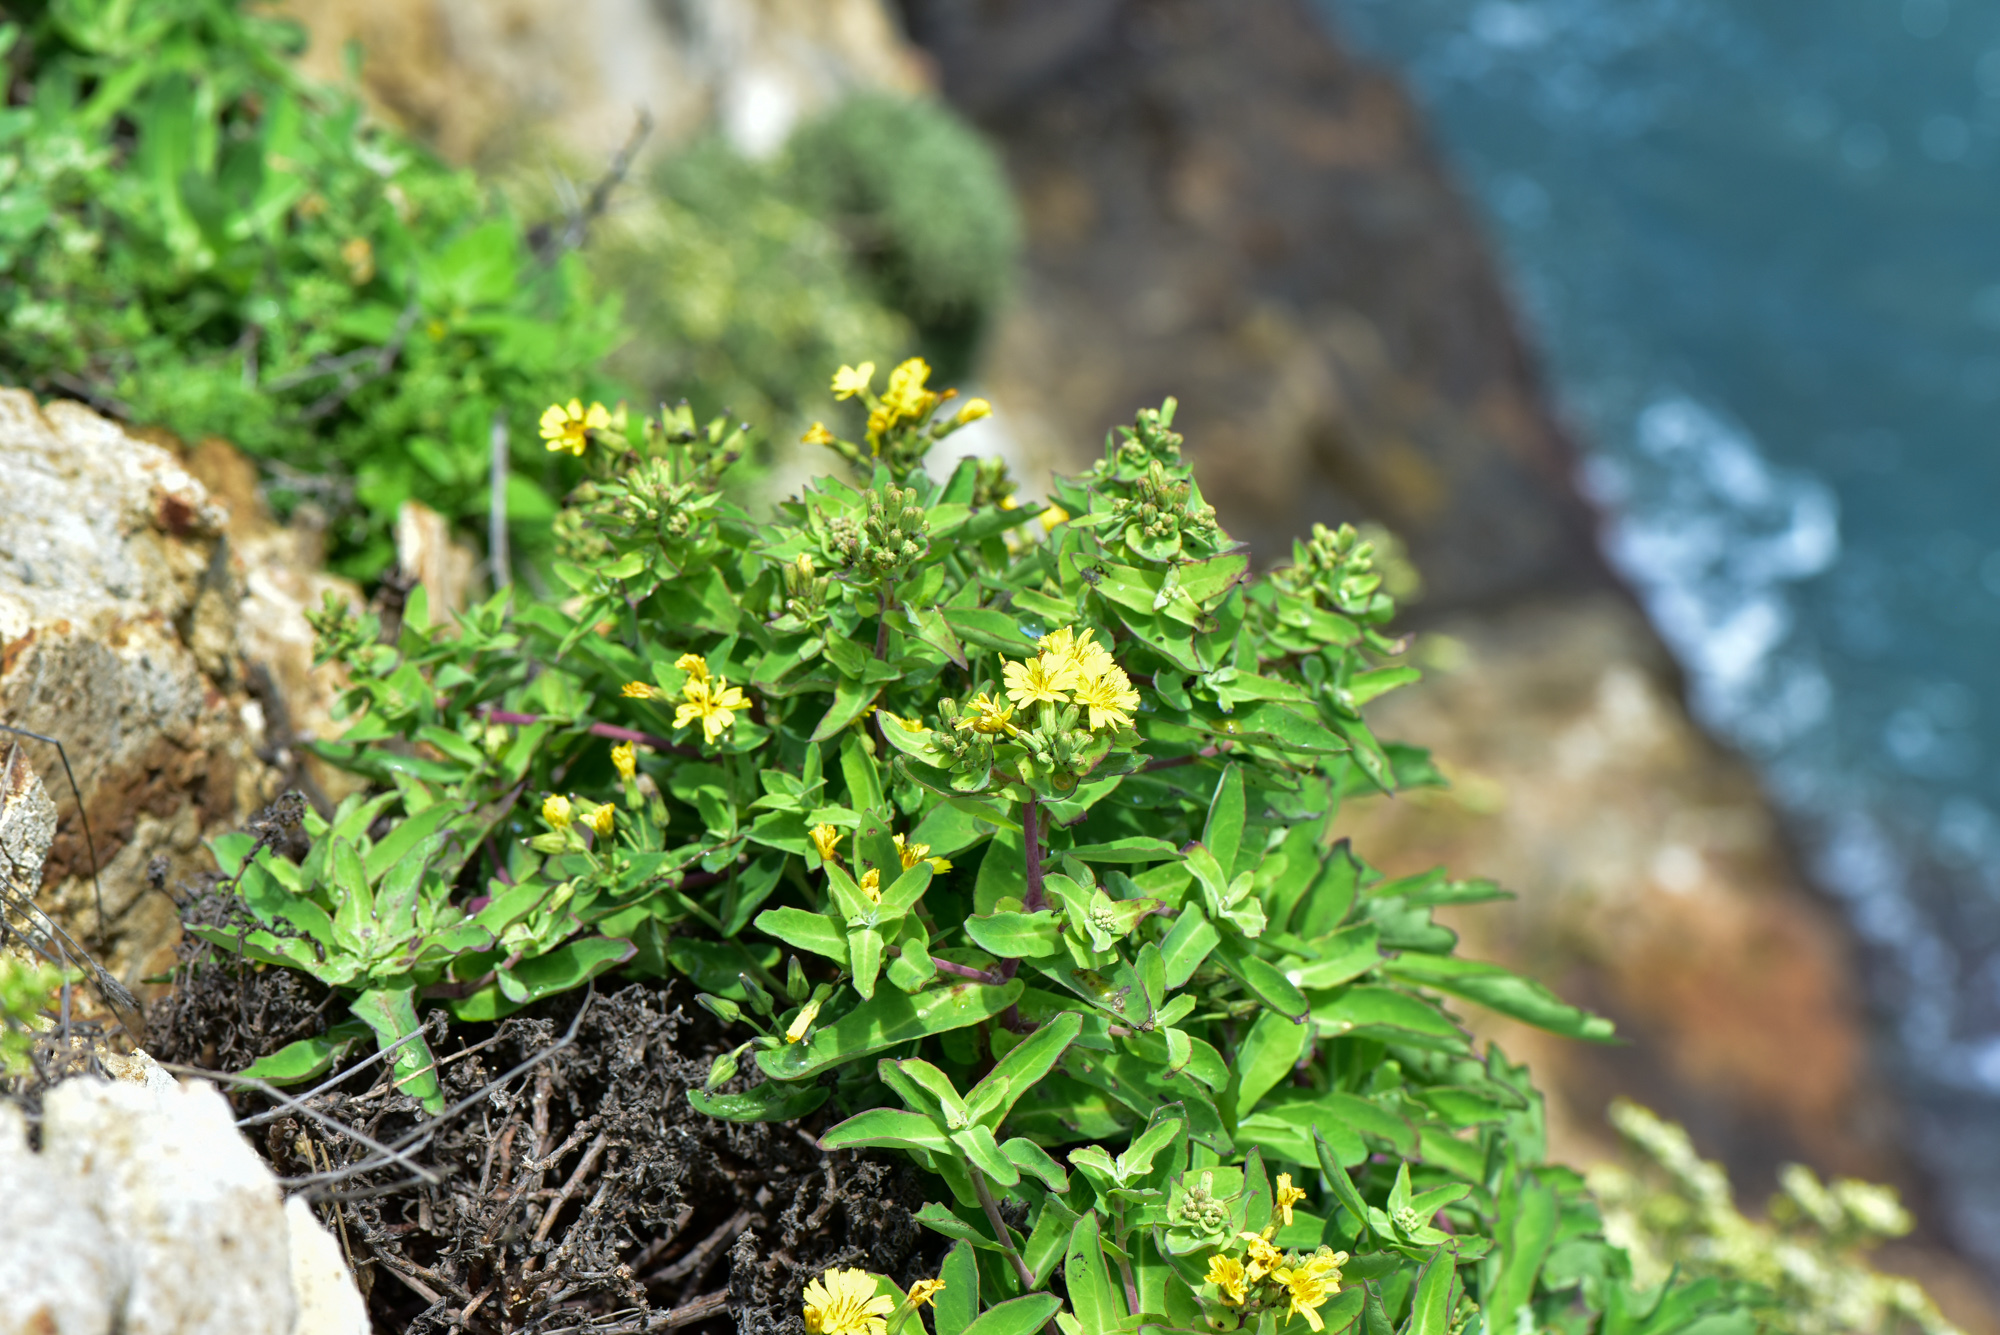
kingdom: Plantae
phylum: Tracheophyta
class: Magnoliopsida
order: Asterales
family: Asteraceae
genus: Crepidiastrum
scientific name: Crepidiastrum lanceolatum
